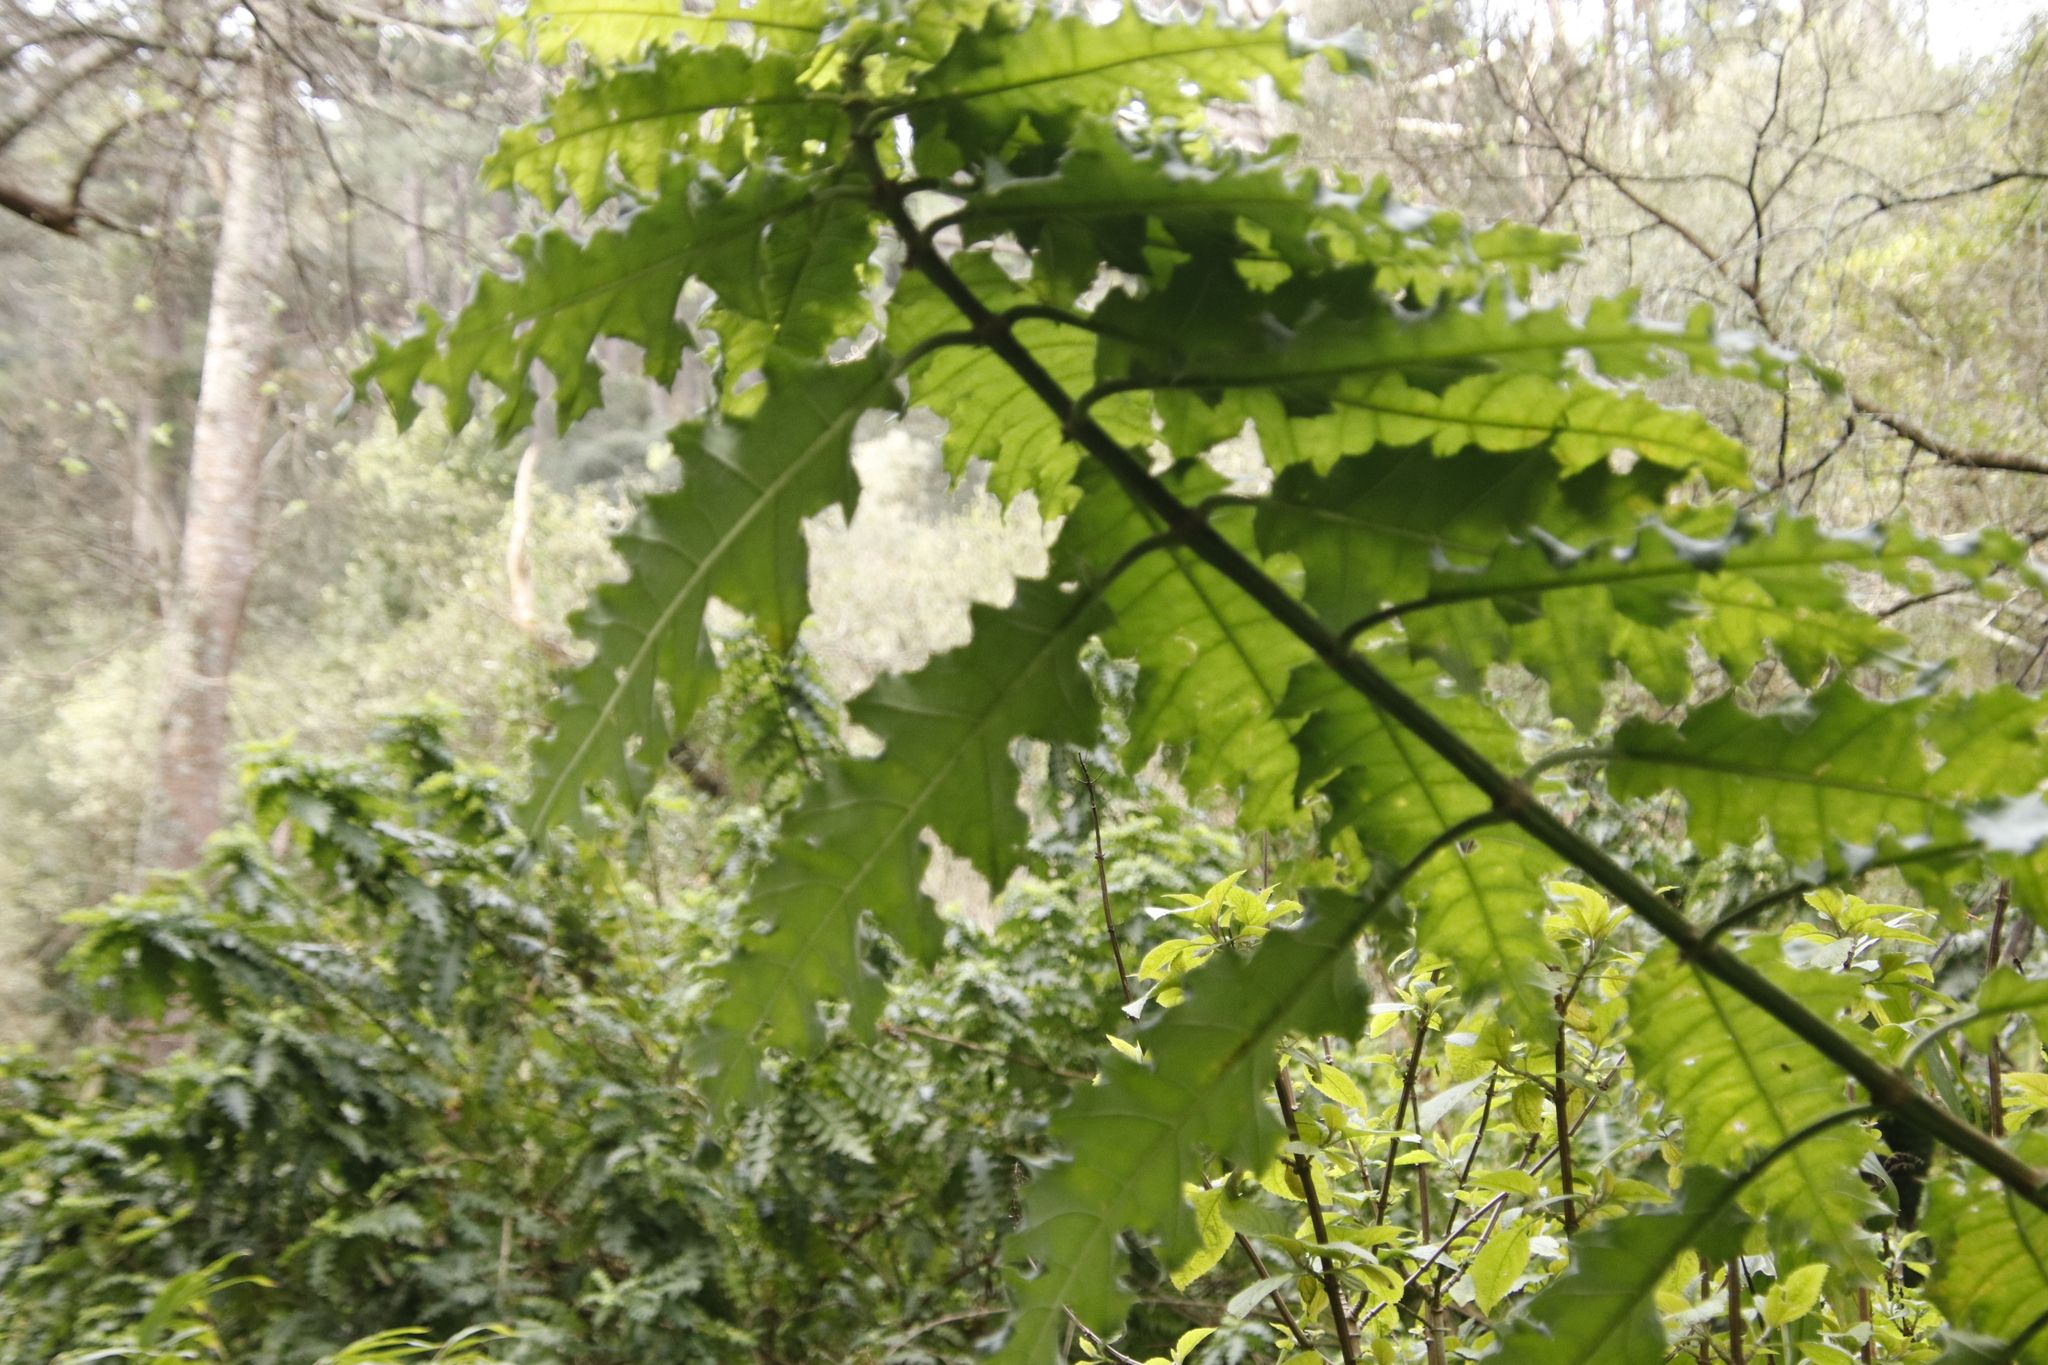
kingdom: Plantae
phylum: Tracheophyta
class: Magnoliopsida
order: Lamiales
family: Acanthaceae
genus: Acanthus
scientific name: Acanthus polystachyus
